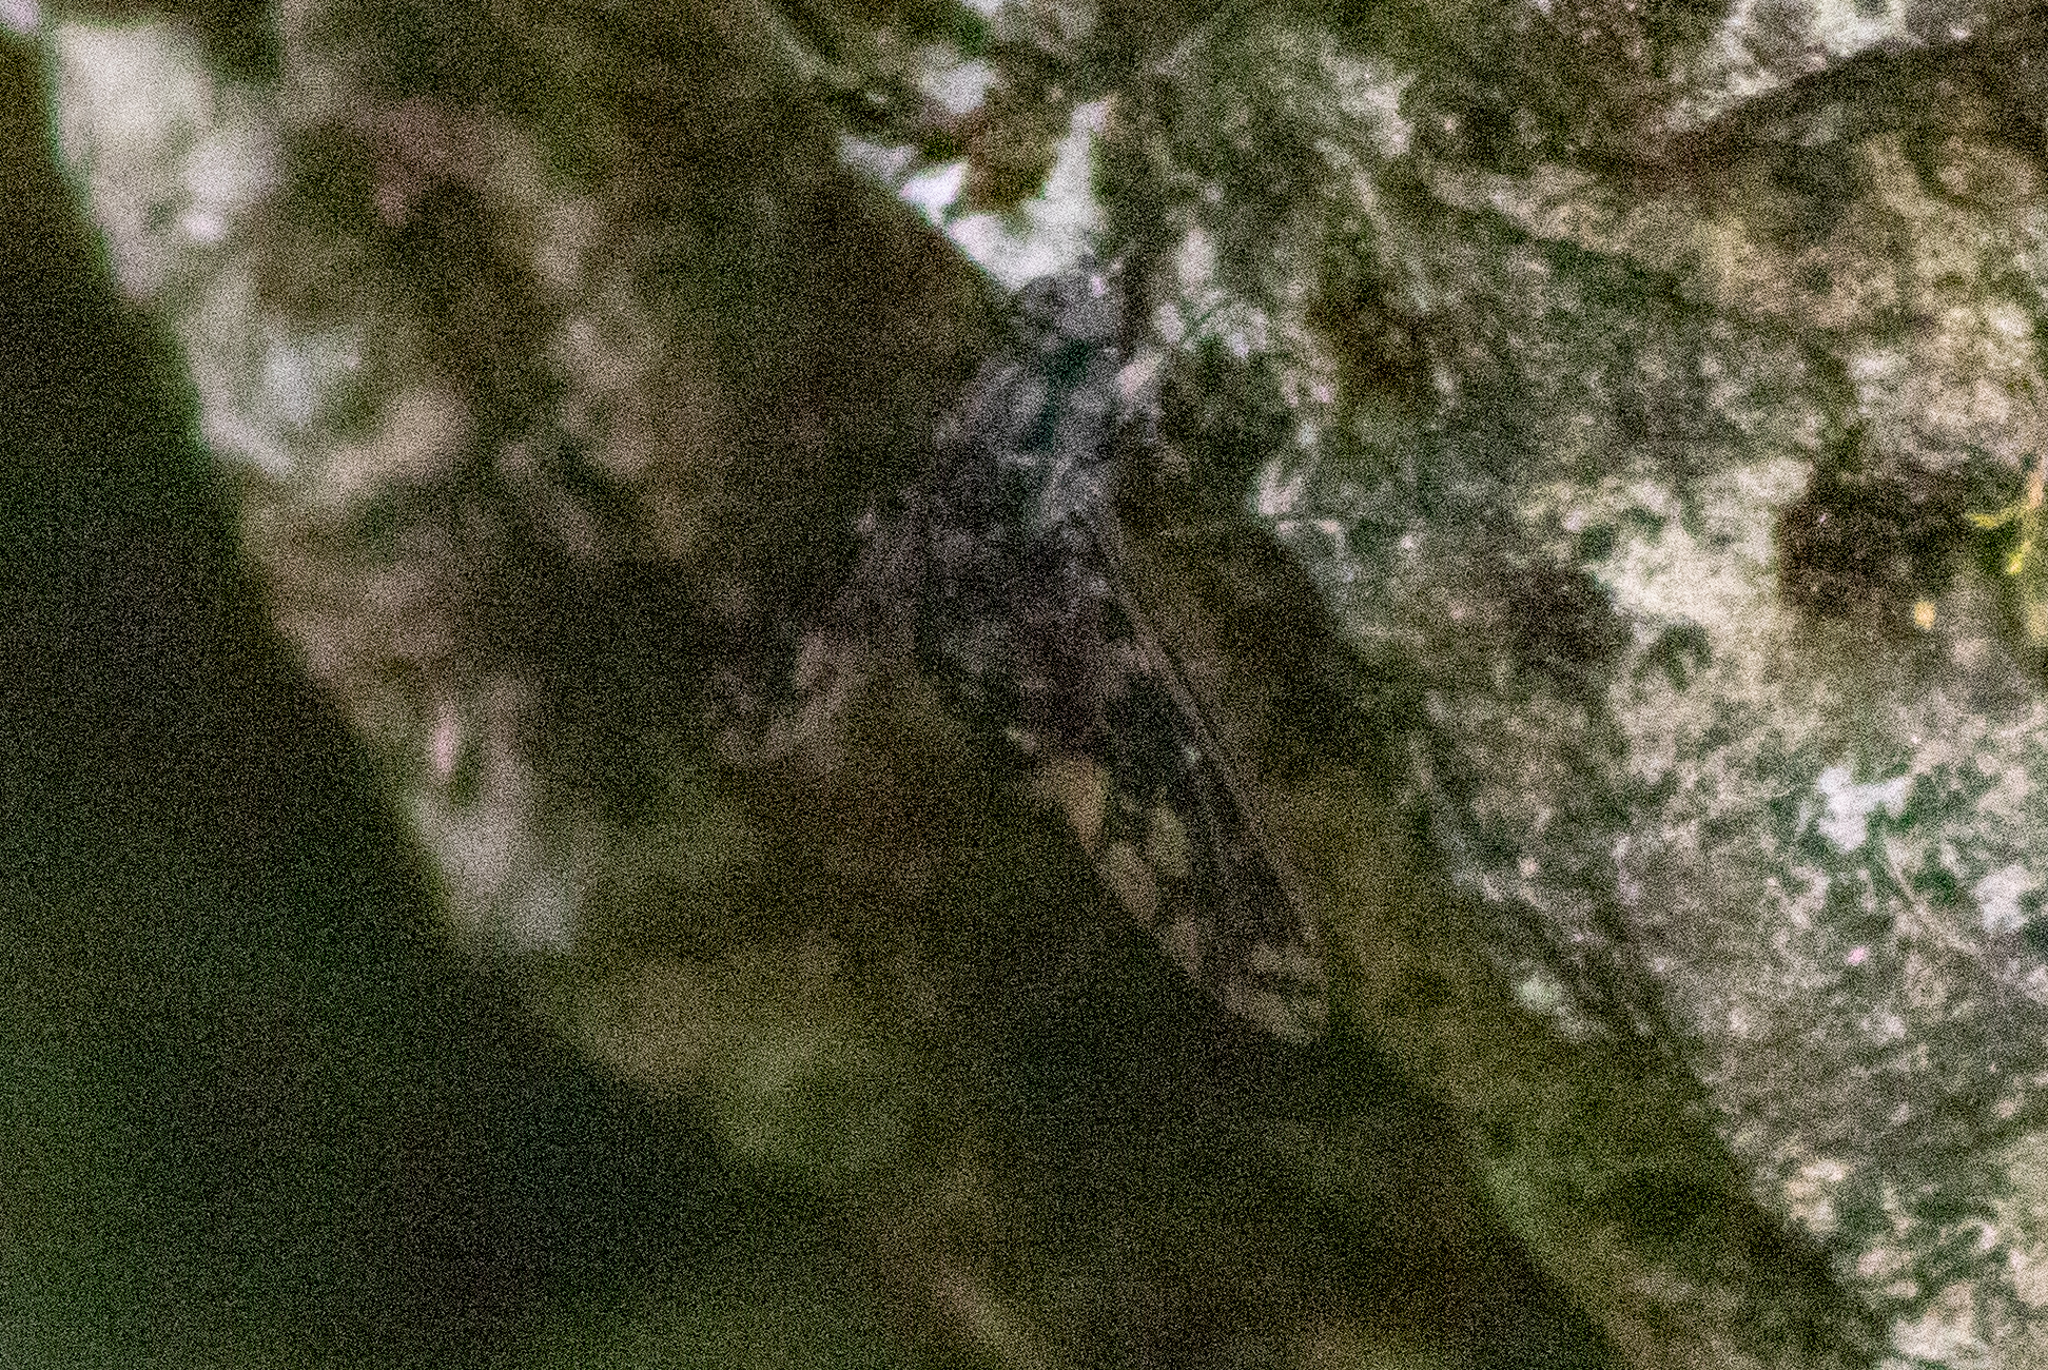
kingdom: Animalia
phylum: Arthropoda
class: Insecta
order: Diptera
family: Bombyliidae
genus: Xenox
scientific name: Xenox tigrinus
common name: Tiger bee fly
